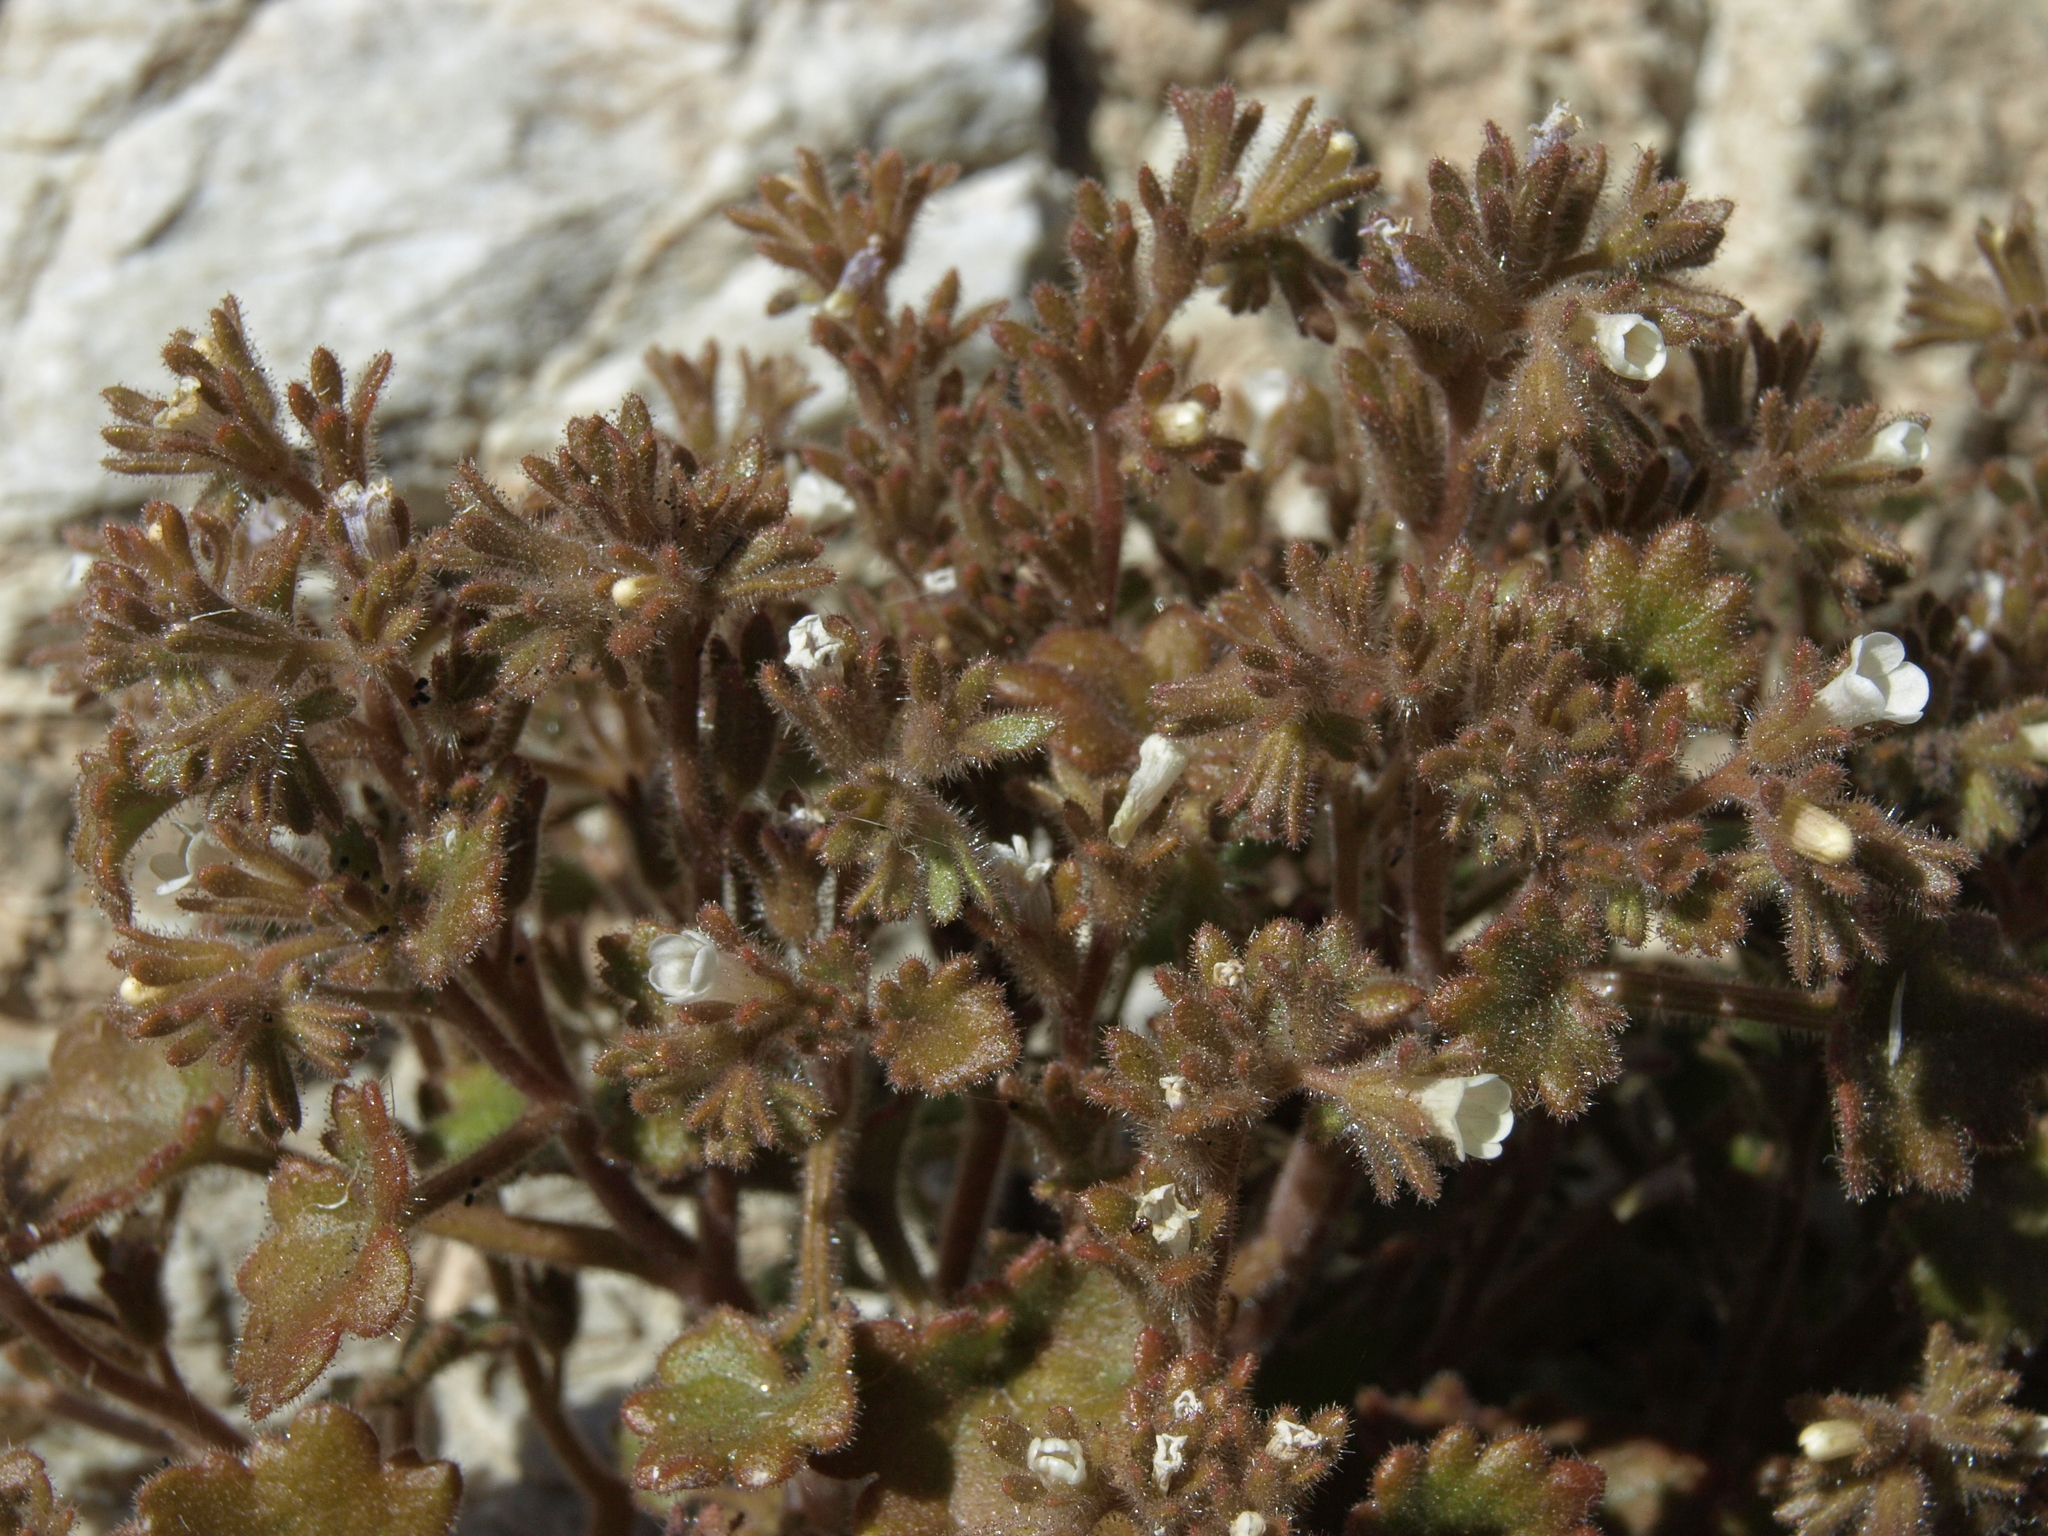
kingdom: Plantae
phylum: Tracheophyta
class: Magnoliopsida
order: Boraginales
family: Hydrophyllaceae
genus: Phacelia
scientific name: Phacelia rotundifolia
